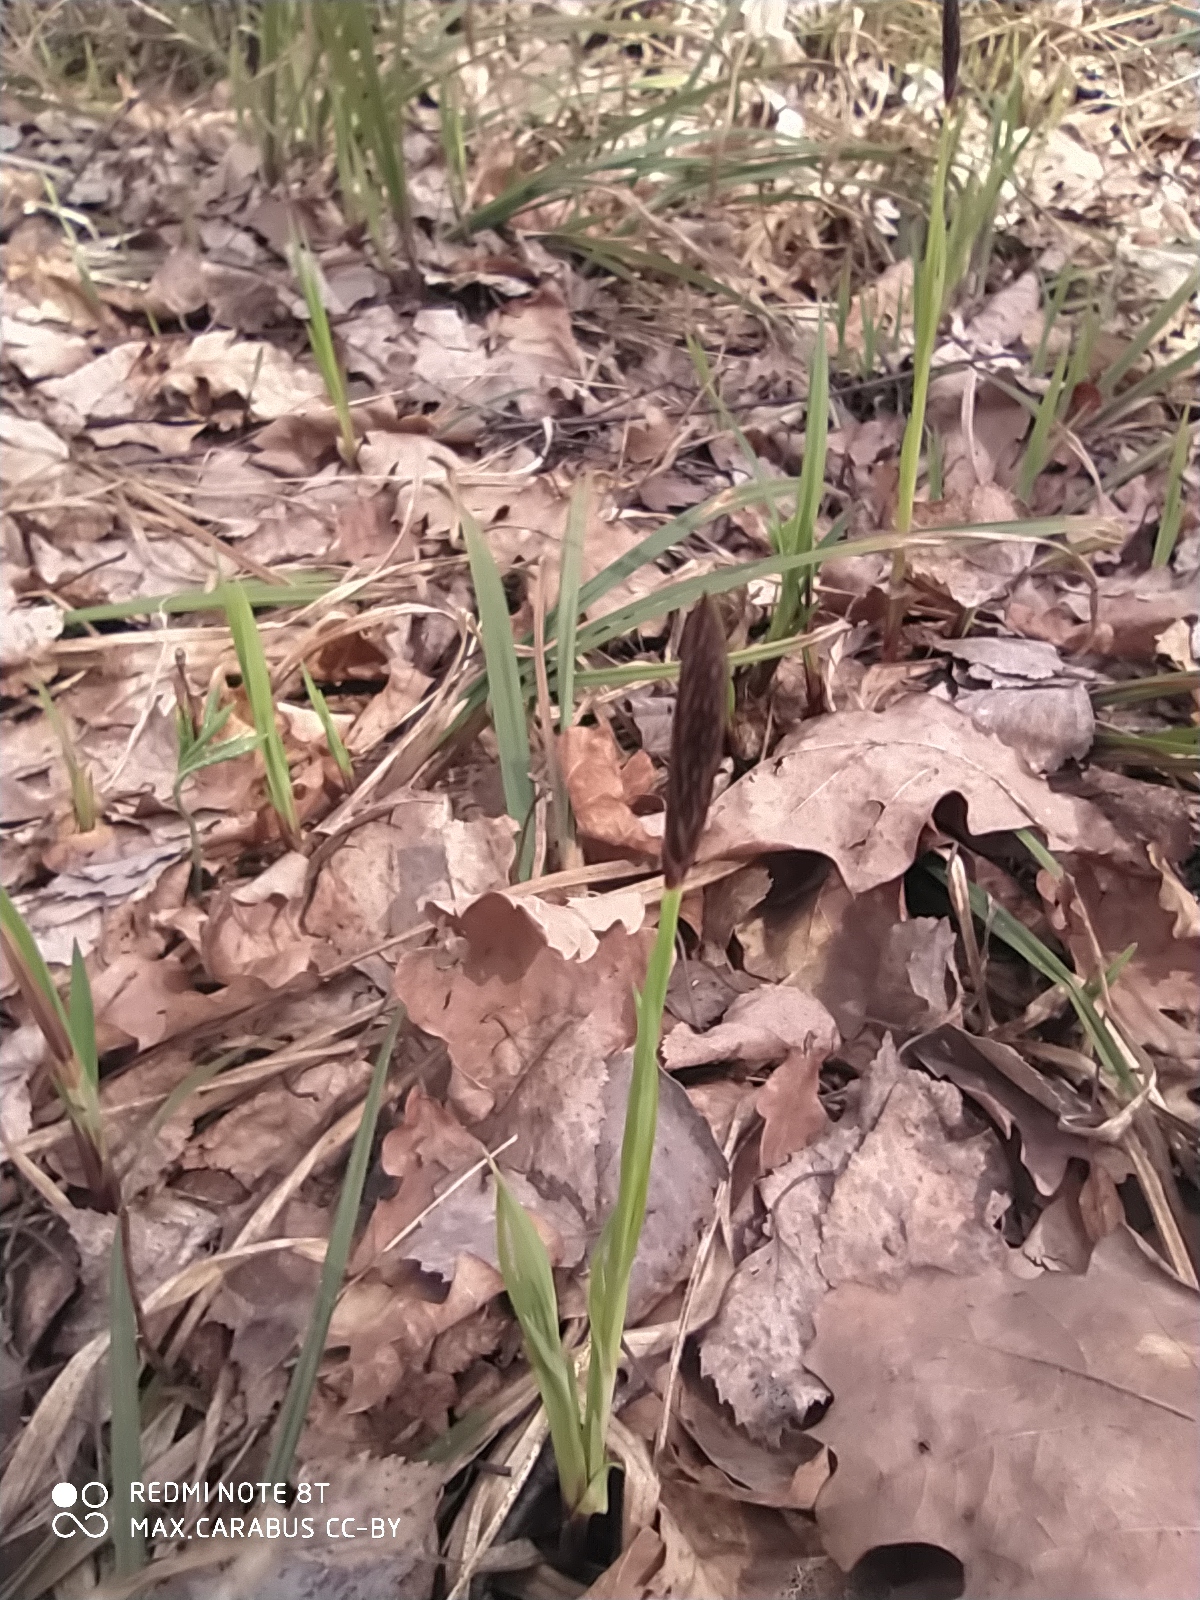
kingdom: Plantae
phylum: Tracheophyta
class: Liliopsida
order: Poales
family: Cyperaceae
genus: Carex
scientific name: Carex pilosa
